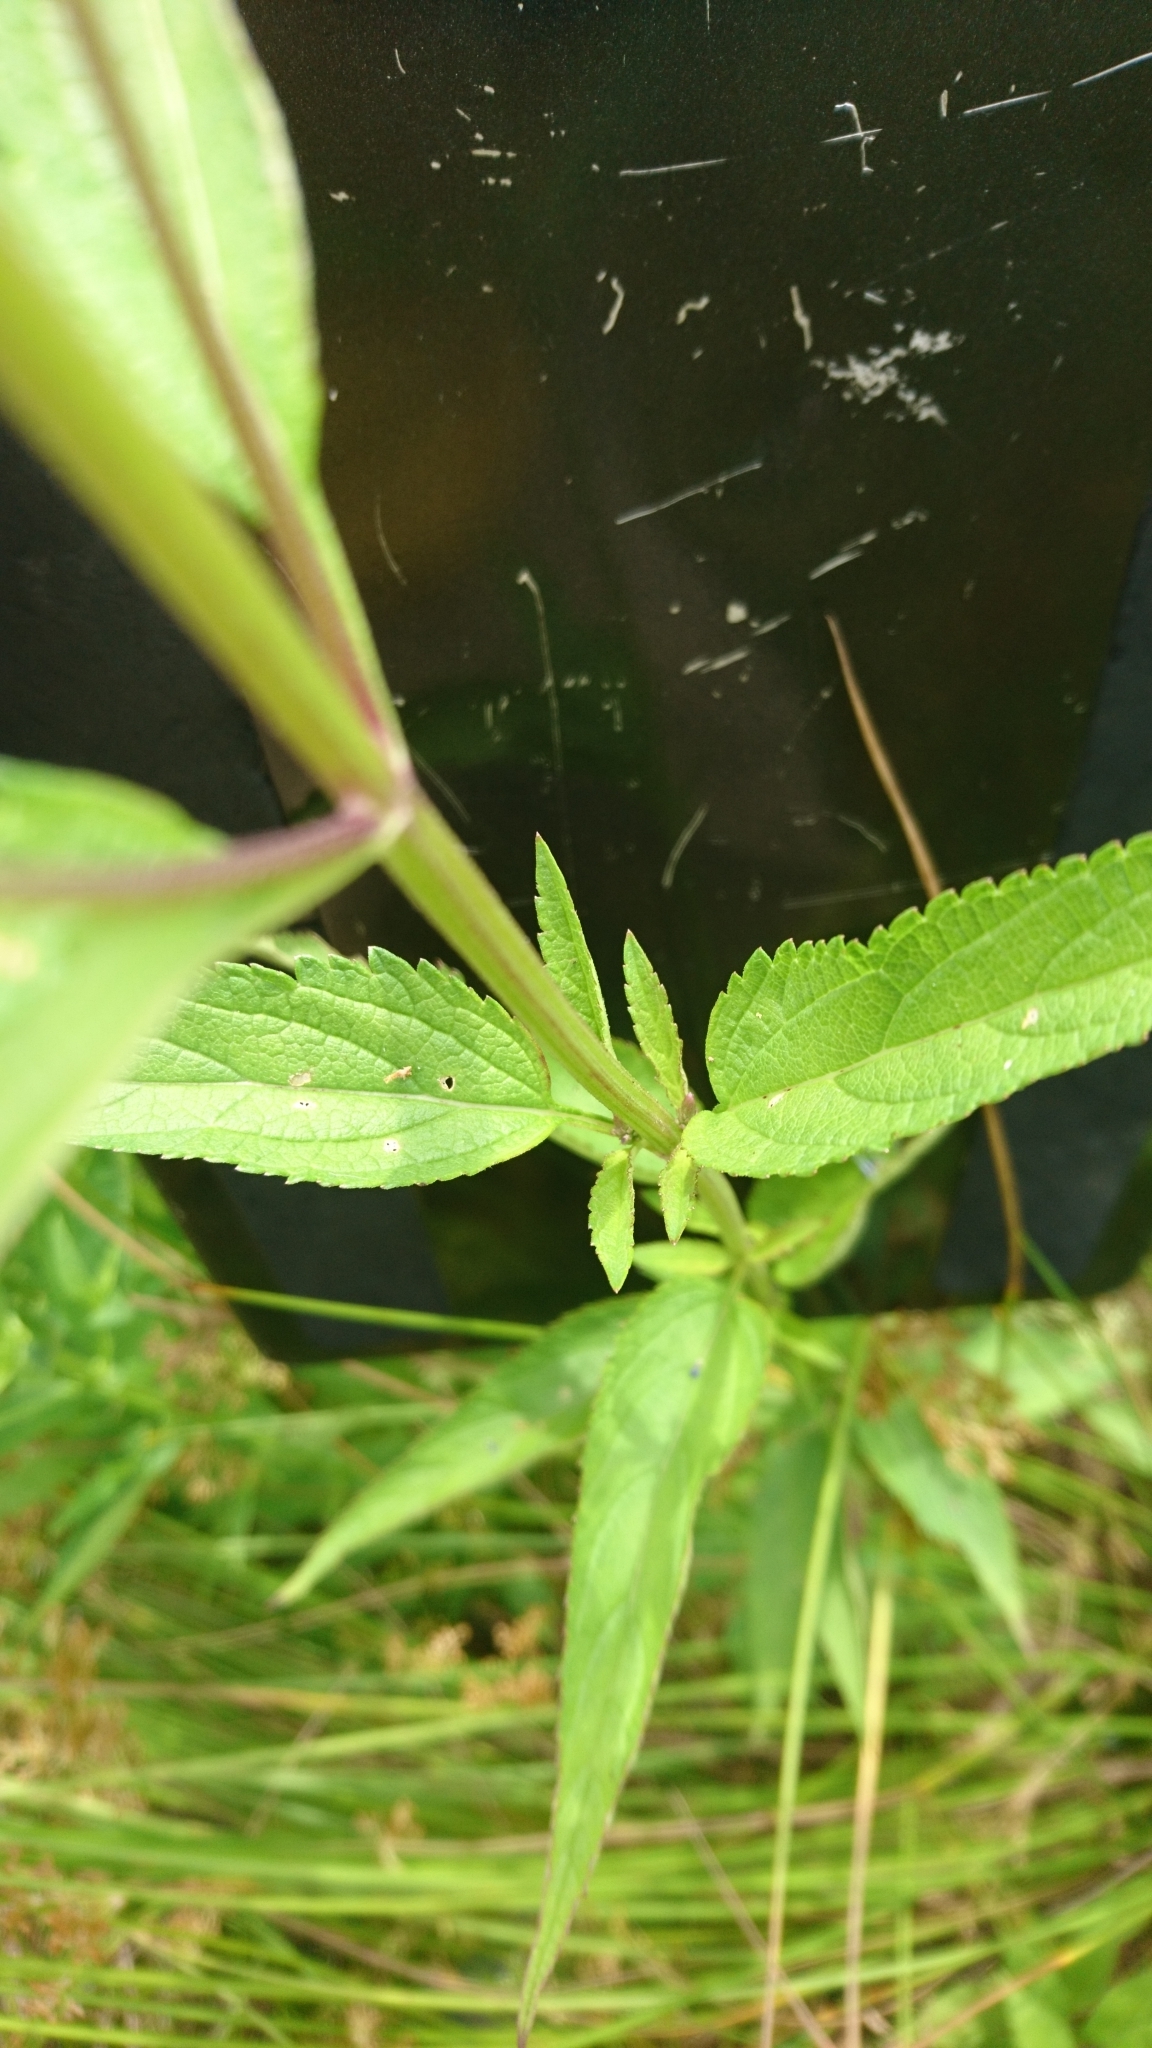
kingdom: Plantae
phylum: Tracheophyta
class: Magnoliopsida
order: Lamiales
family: Verbenaceae
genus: Verbena
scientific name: Verbena hastata
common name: American blue vervain
